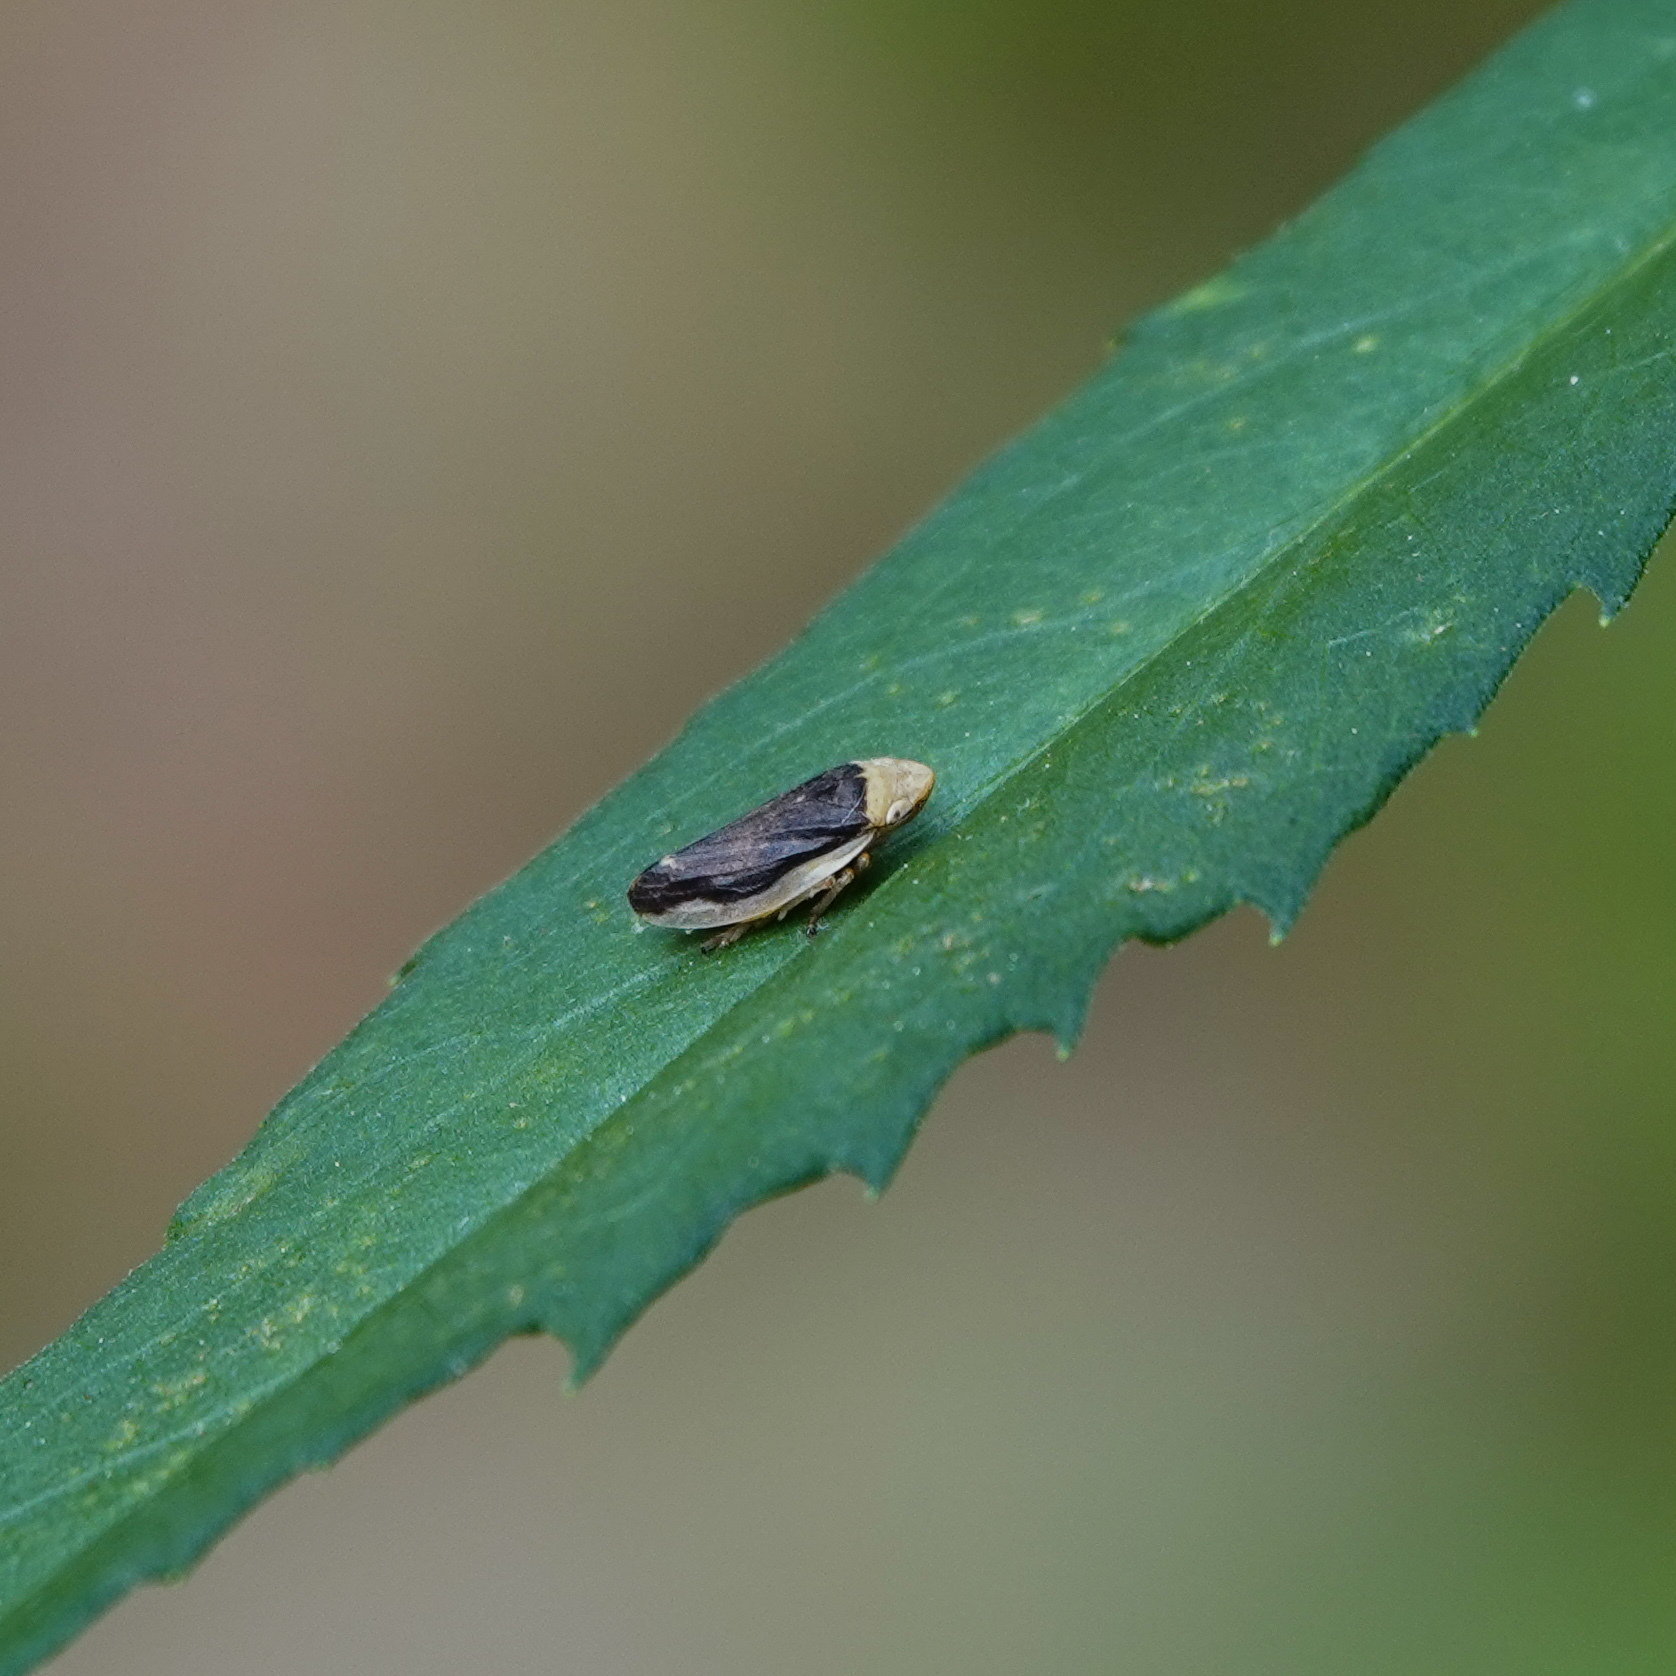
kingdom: Animalia
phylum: Arthropoda
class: Insecta
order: Hemiptera
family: Aphrophoridae
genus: Philaenus
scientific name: Philaenus spumarius
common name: Meadow spittlebug
